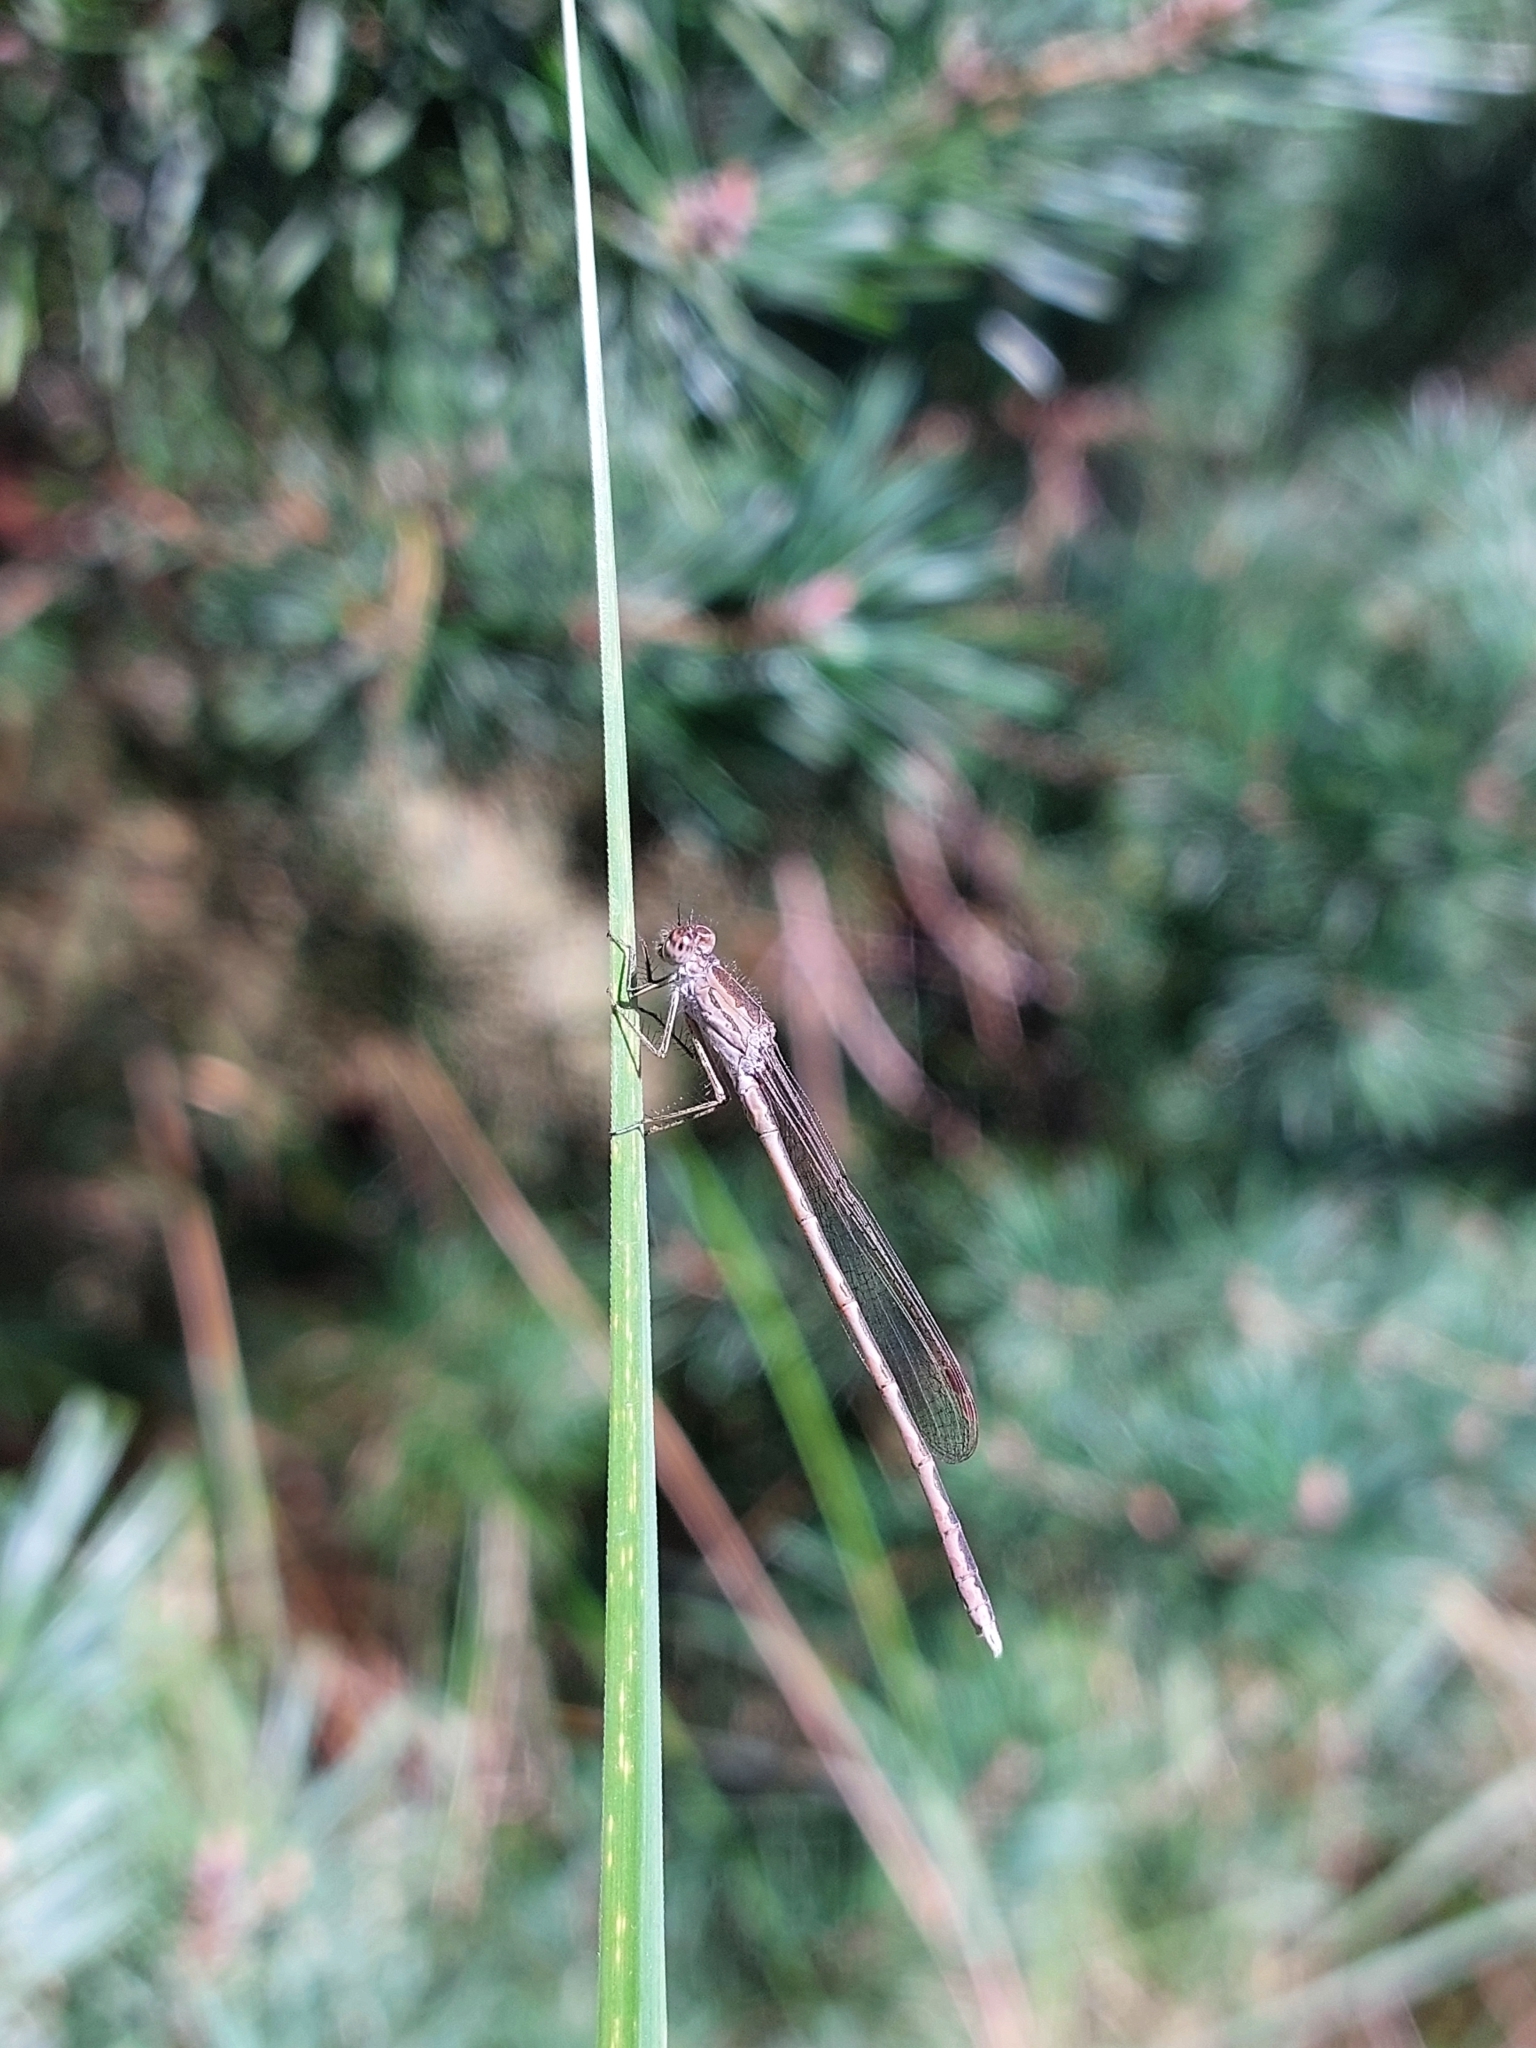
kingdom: Animalia
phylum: Arthropoda
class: Insecta
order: Odonata
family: Lestidae
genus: Sympecma
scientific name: Sympecma paedisca
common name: Siberian winter damsel
